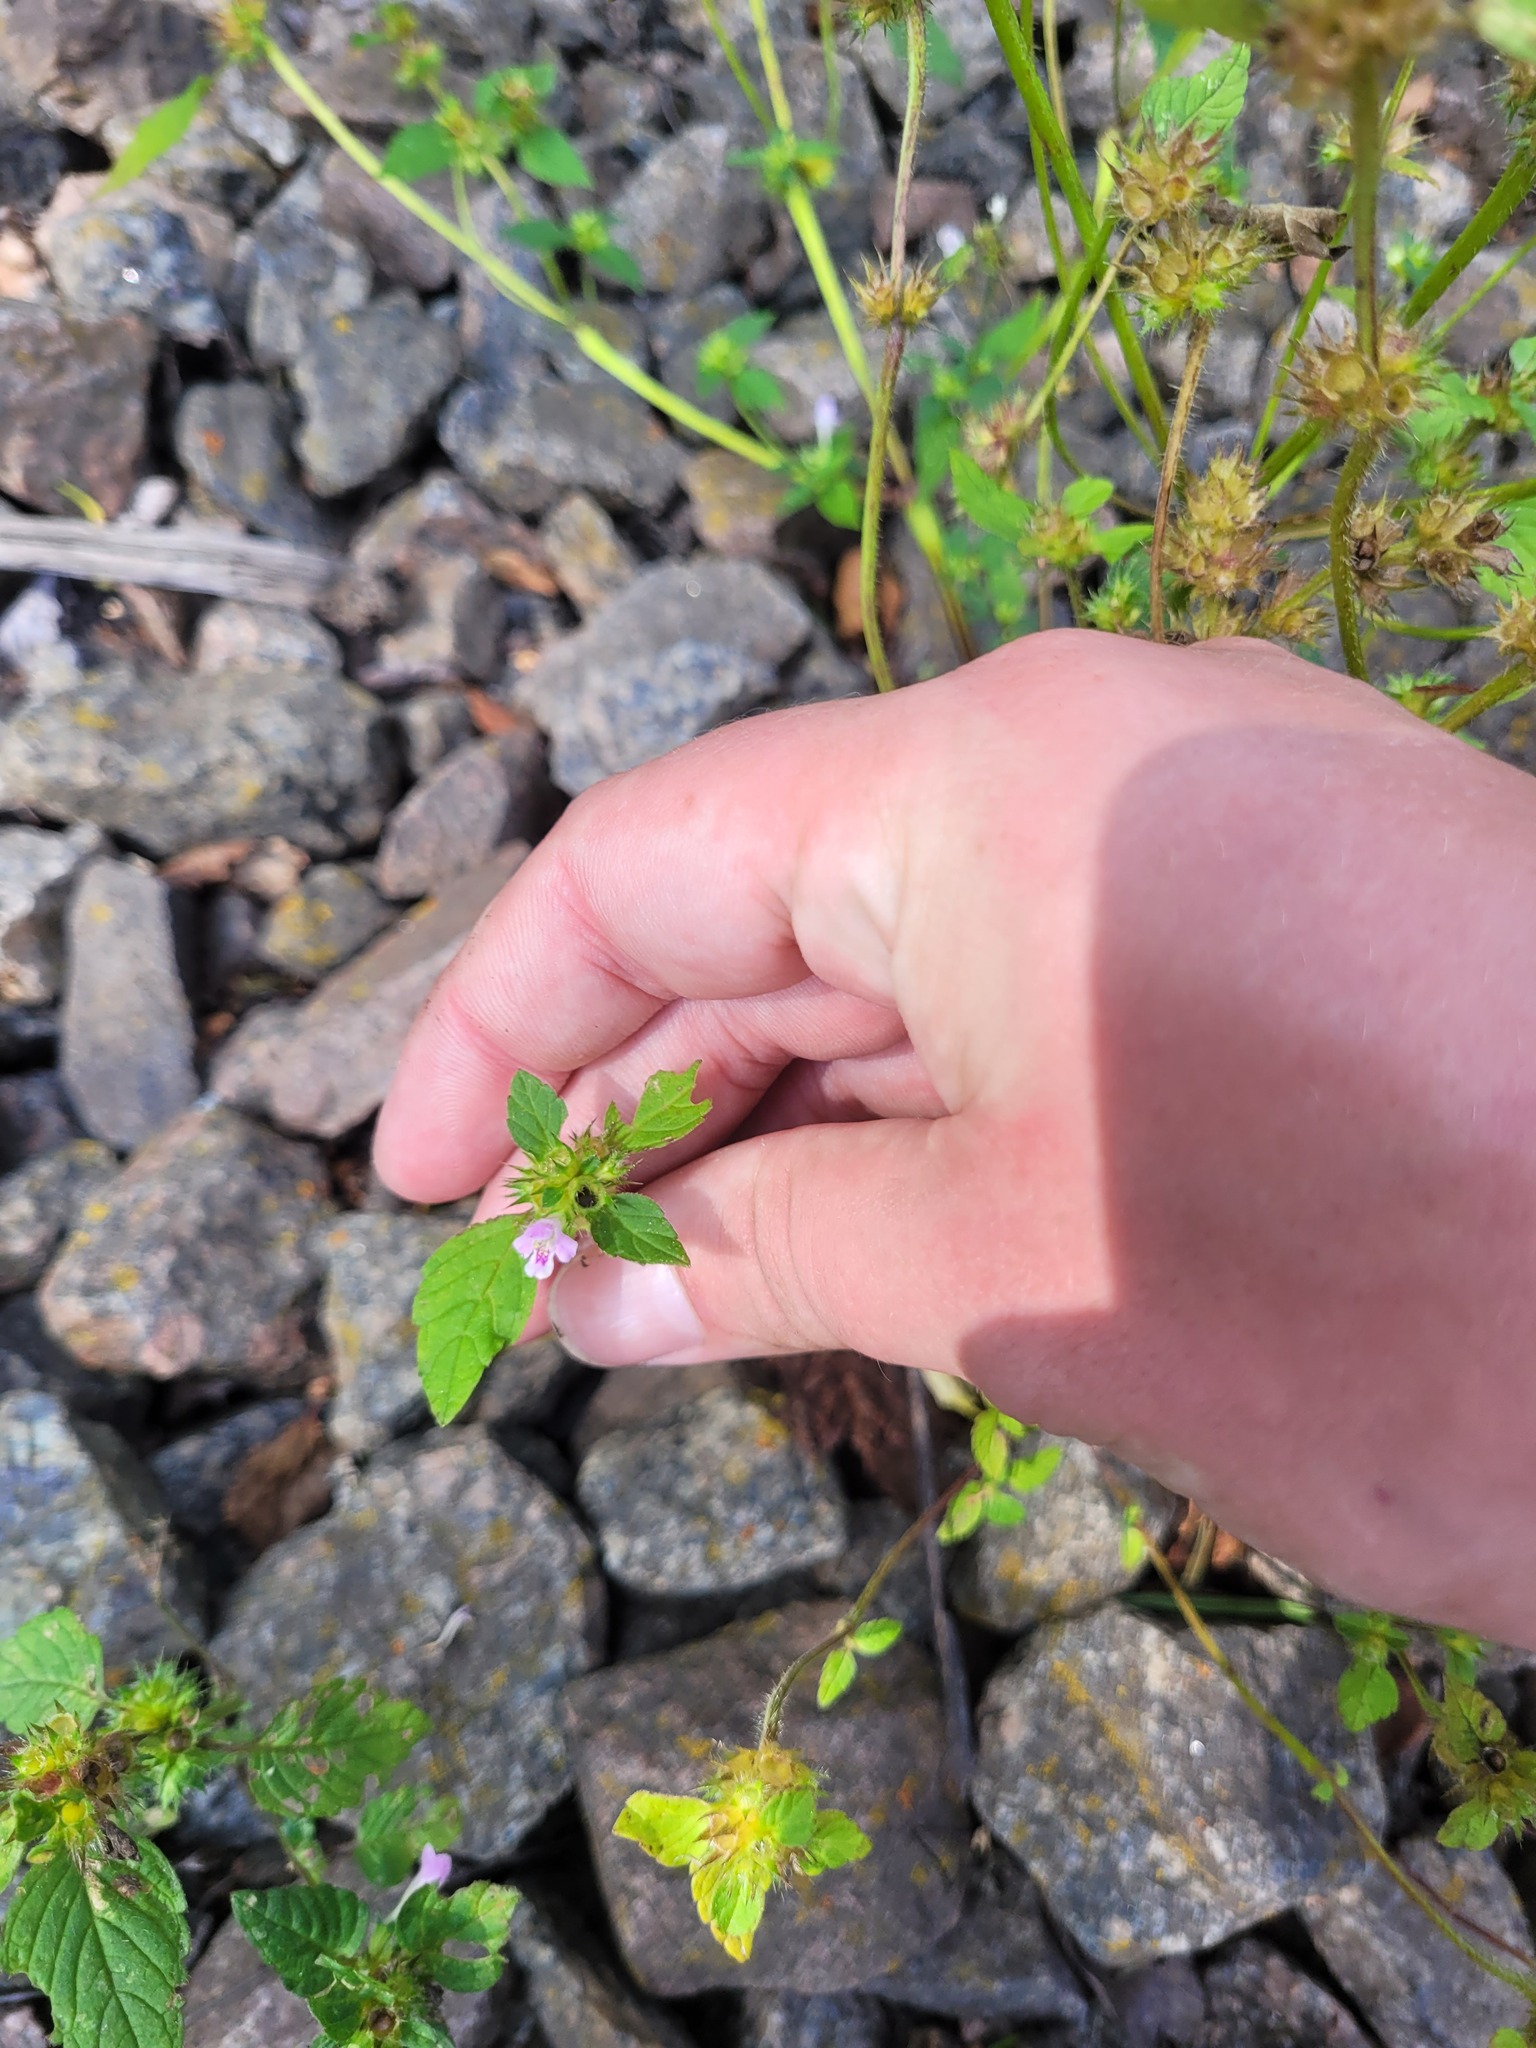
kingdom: Plantae
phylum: Tracheophyta
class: Magnoliopsida
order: Lamiales
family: Lamiaceae
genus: Galeopsis
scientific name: Galeopsis tetrahit
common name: Common hemp-nettle
